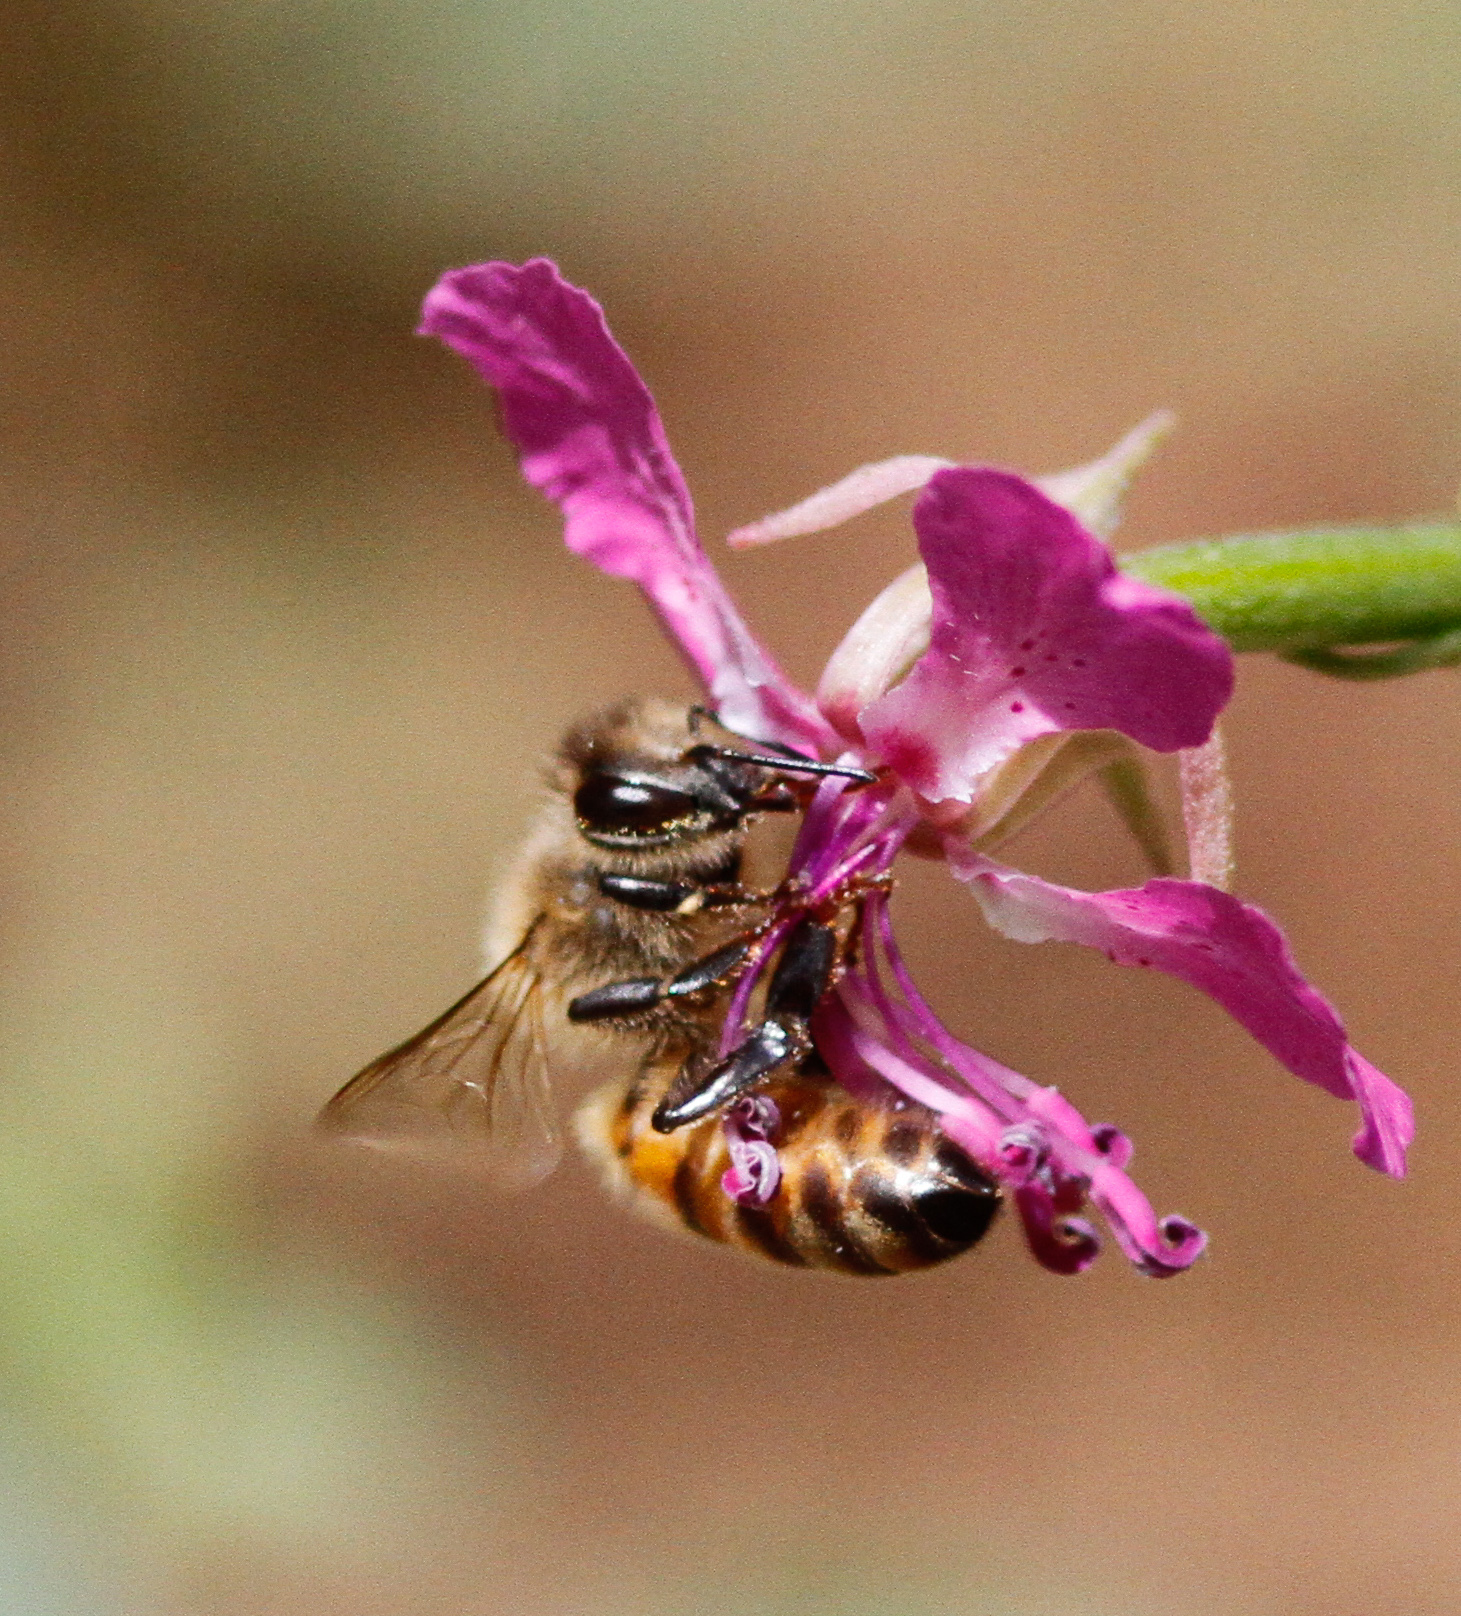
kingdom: Animalia
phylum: Arthropoda
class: Insecta
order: Hymenoptera
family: Apidae
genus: Apis
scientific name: Apis mellifera
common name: Honey bee
